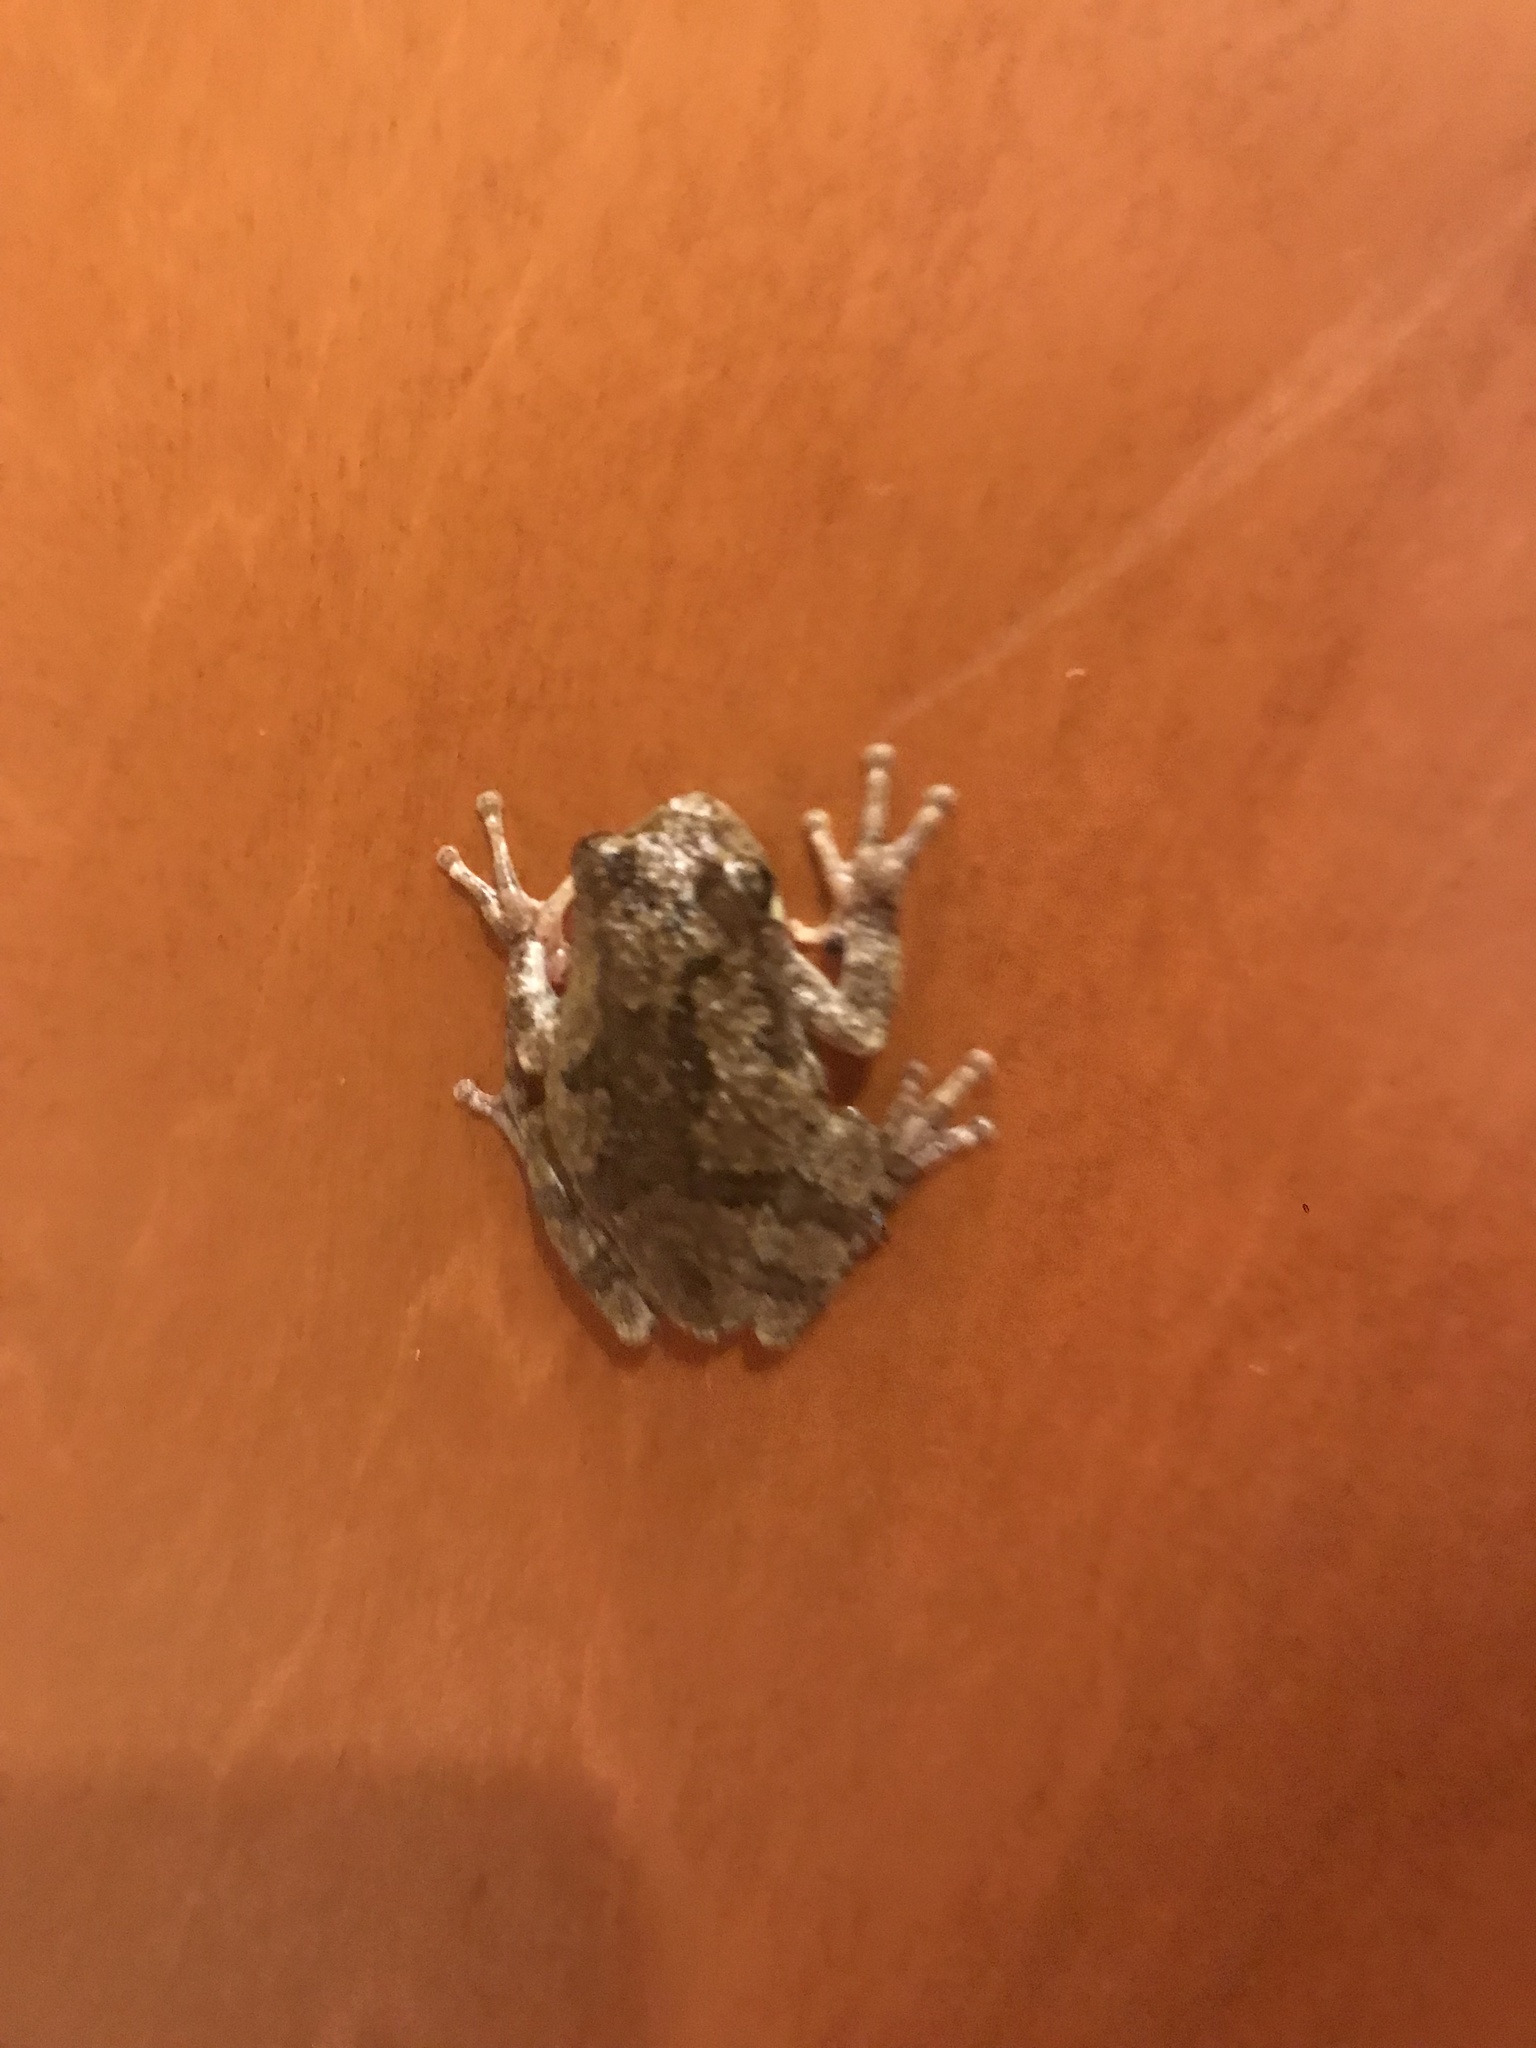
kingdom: Animalia
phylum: Chordata
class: Amphibia
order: Anura
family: Hylidae
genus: Dryophytes
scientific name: Dryophytes chrysoscelis
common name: Cope's gray treefrog
